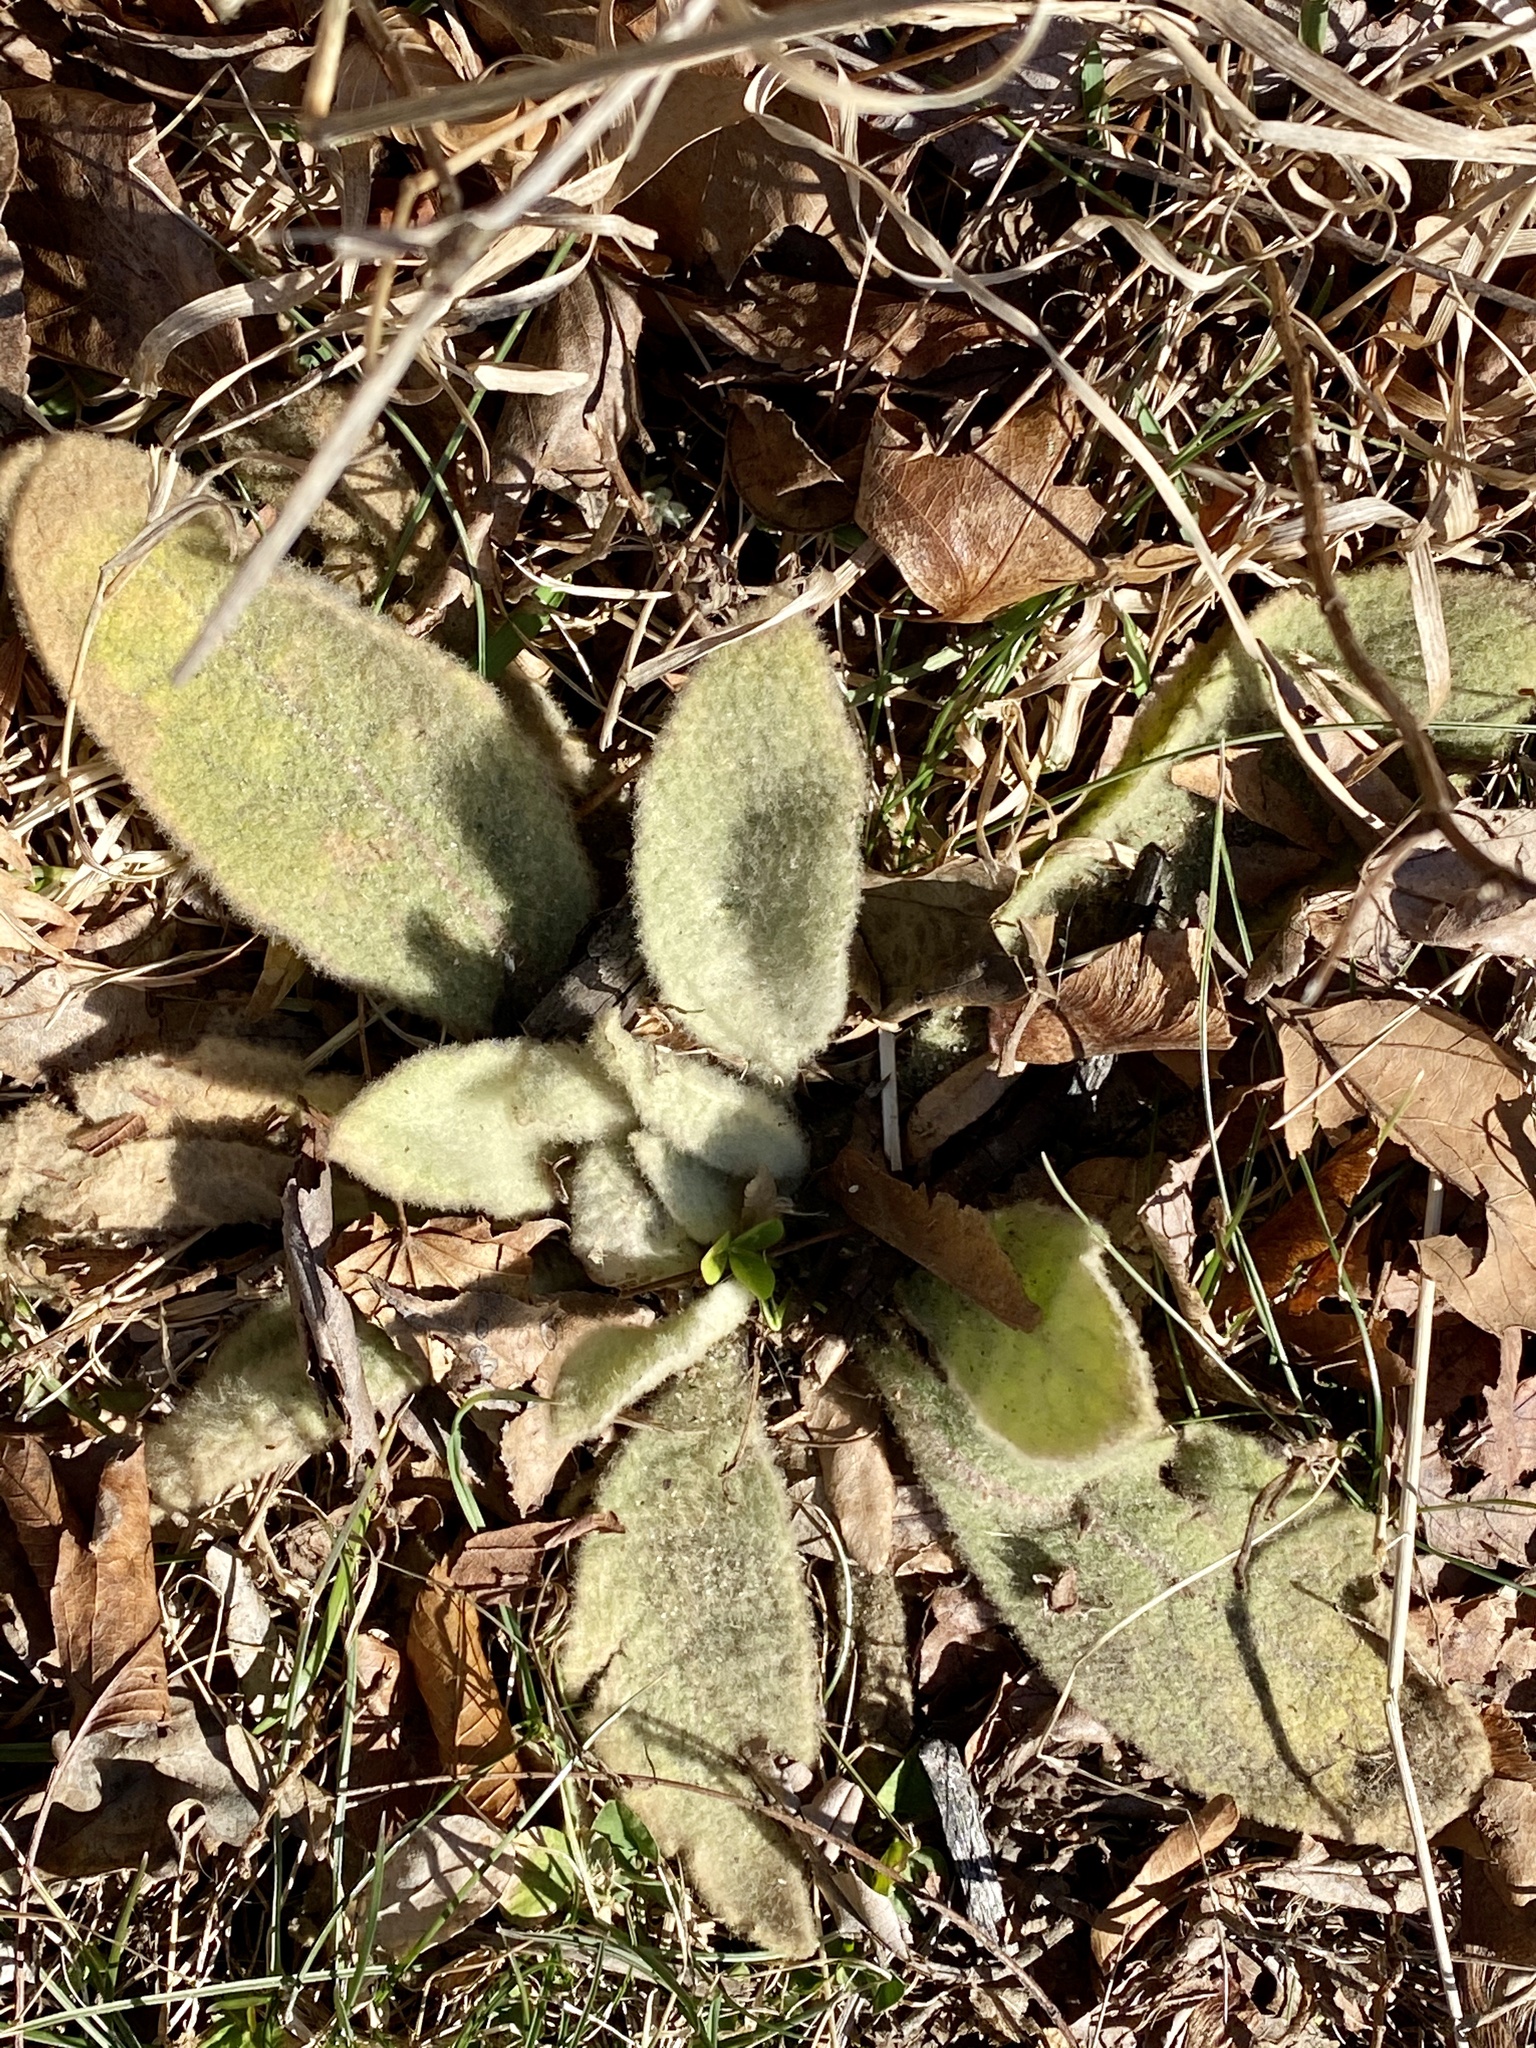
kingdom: Plantae
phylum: Tracheophyta
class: Magnoliopsida
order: Lamiales
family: Scrophulariaceae
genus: Verbascum
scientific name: Verbascum thapsus
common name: Common mullein
